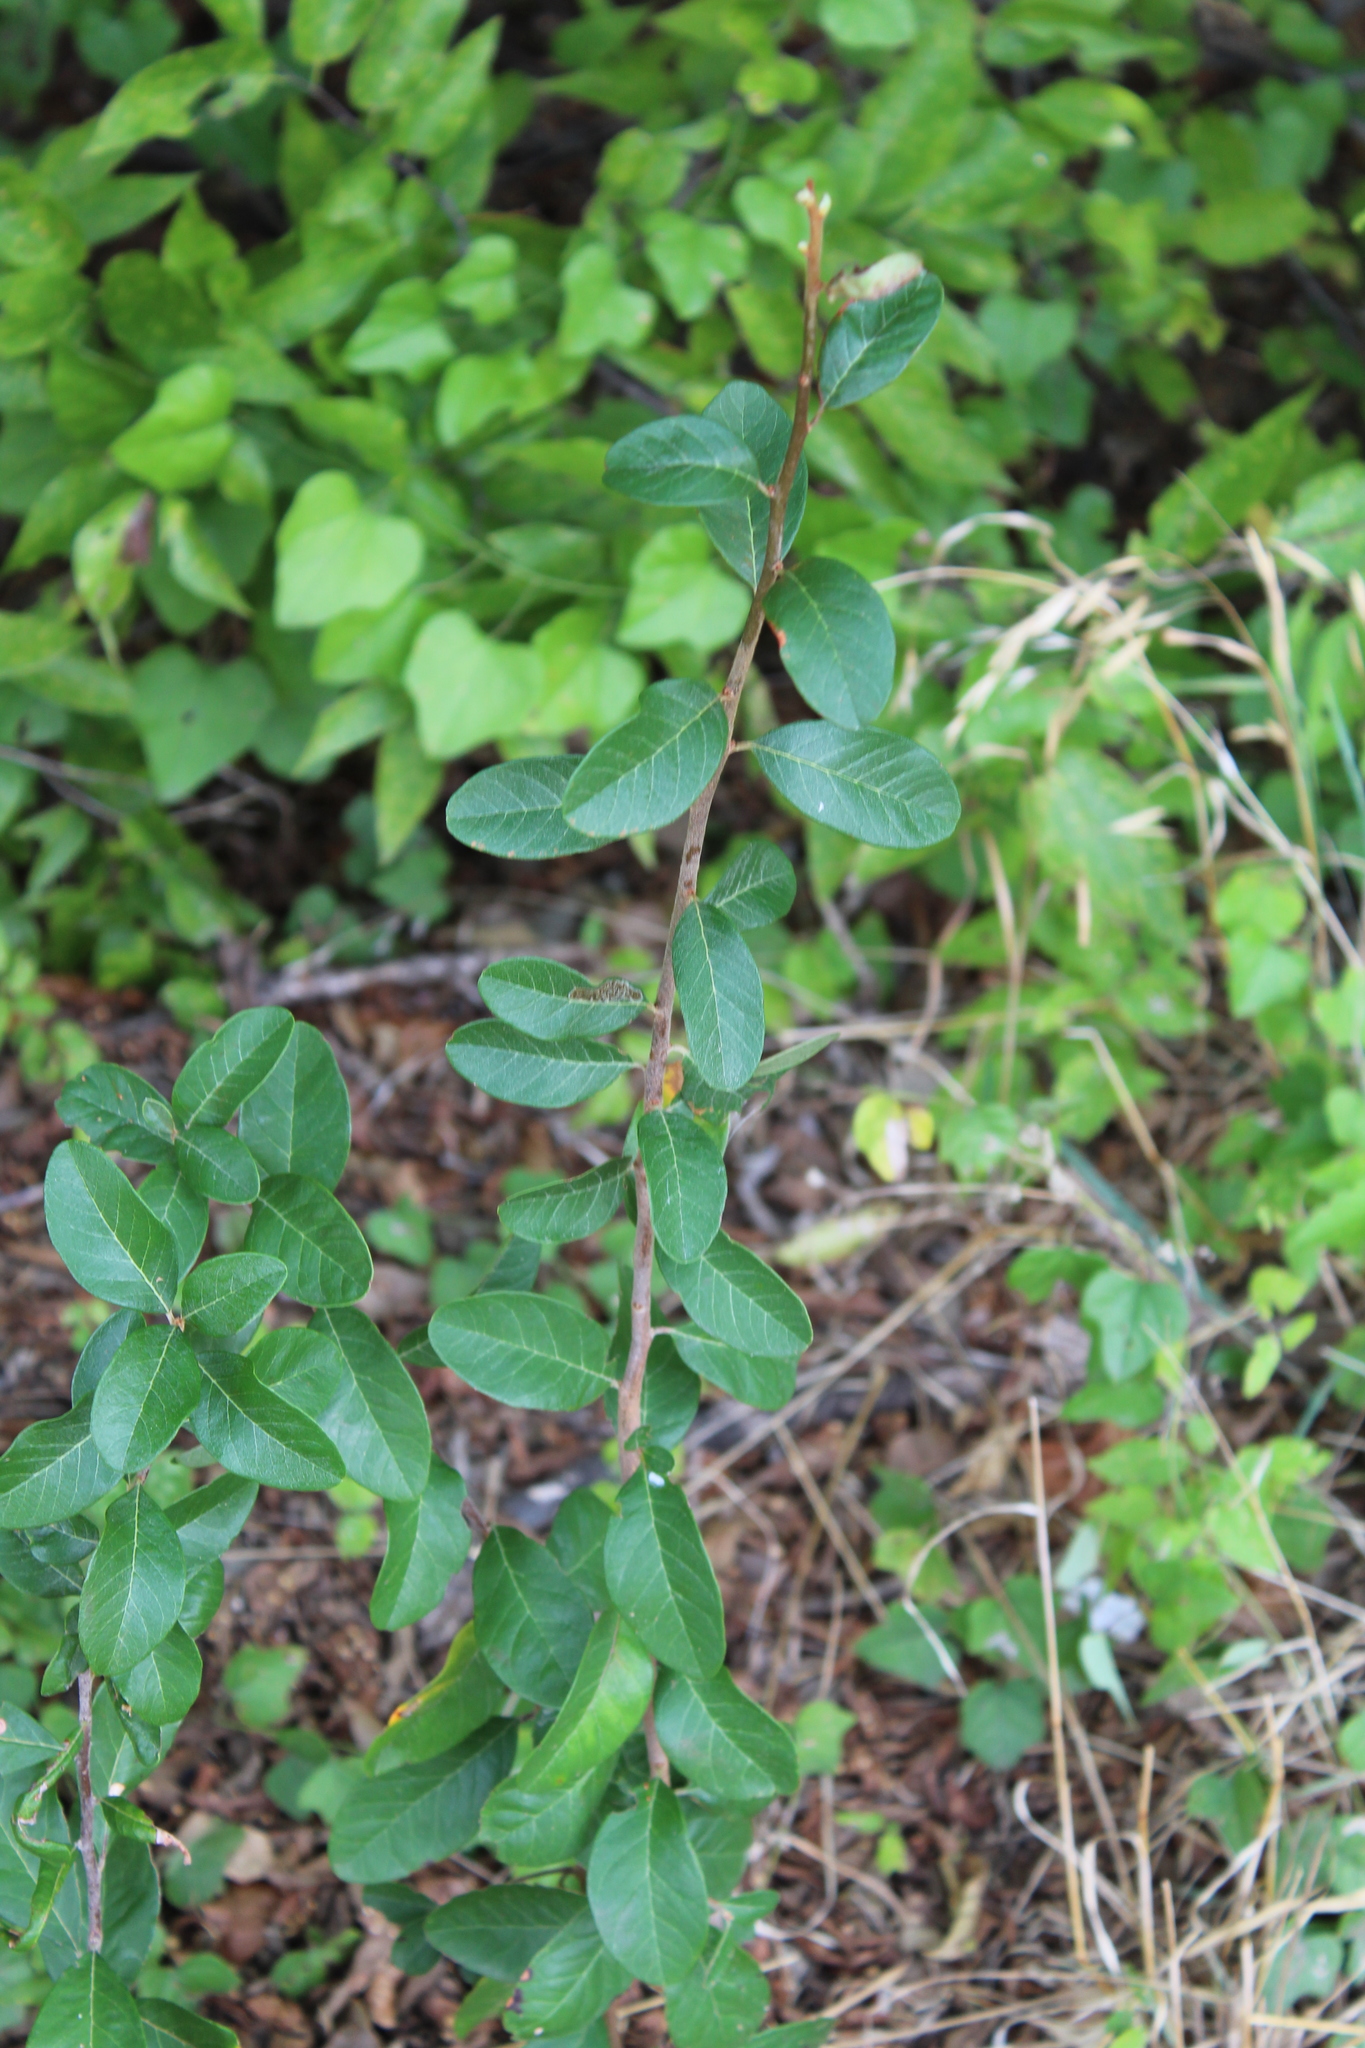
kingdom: Plantae
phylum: Tracheophyta
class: Magnoliopsida
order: Ericales
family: Sapotaceae
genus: Sideroxylon
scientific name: Sideroxylon lanuginosum
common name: Chittamwood
